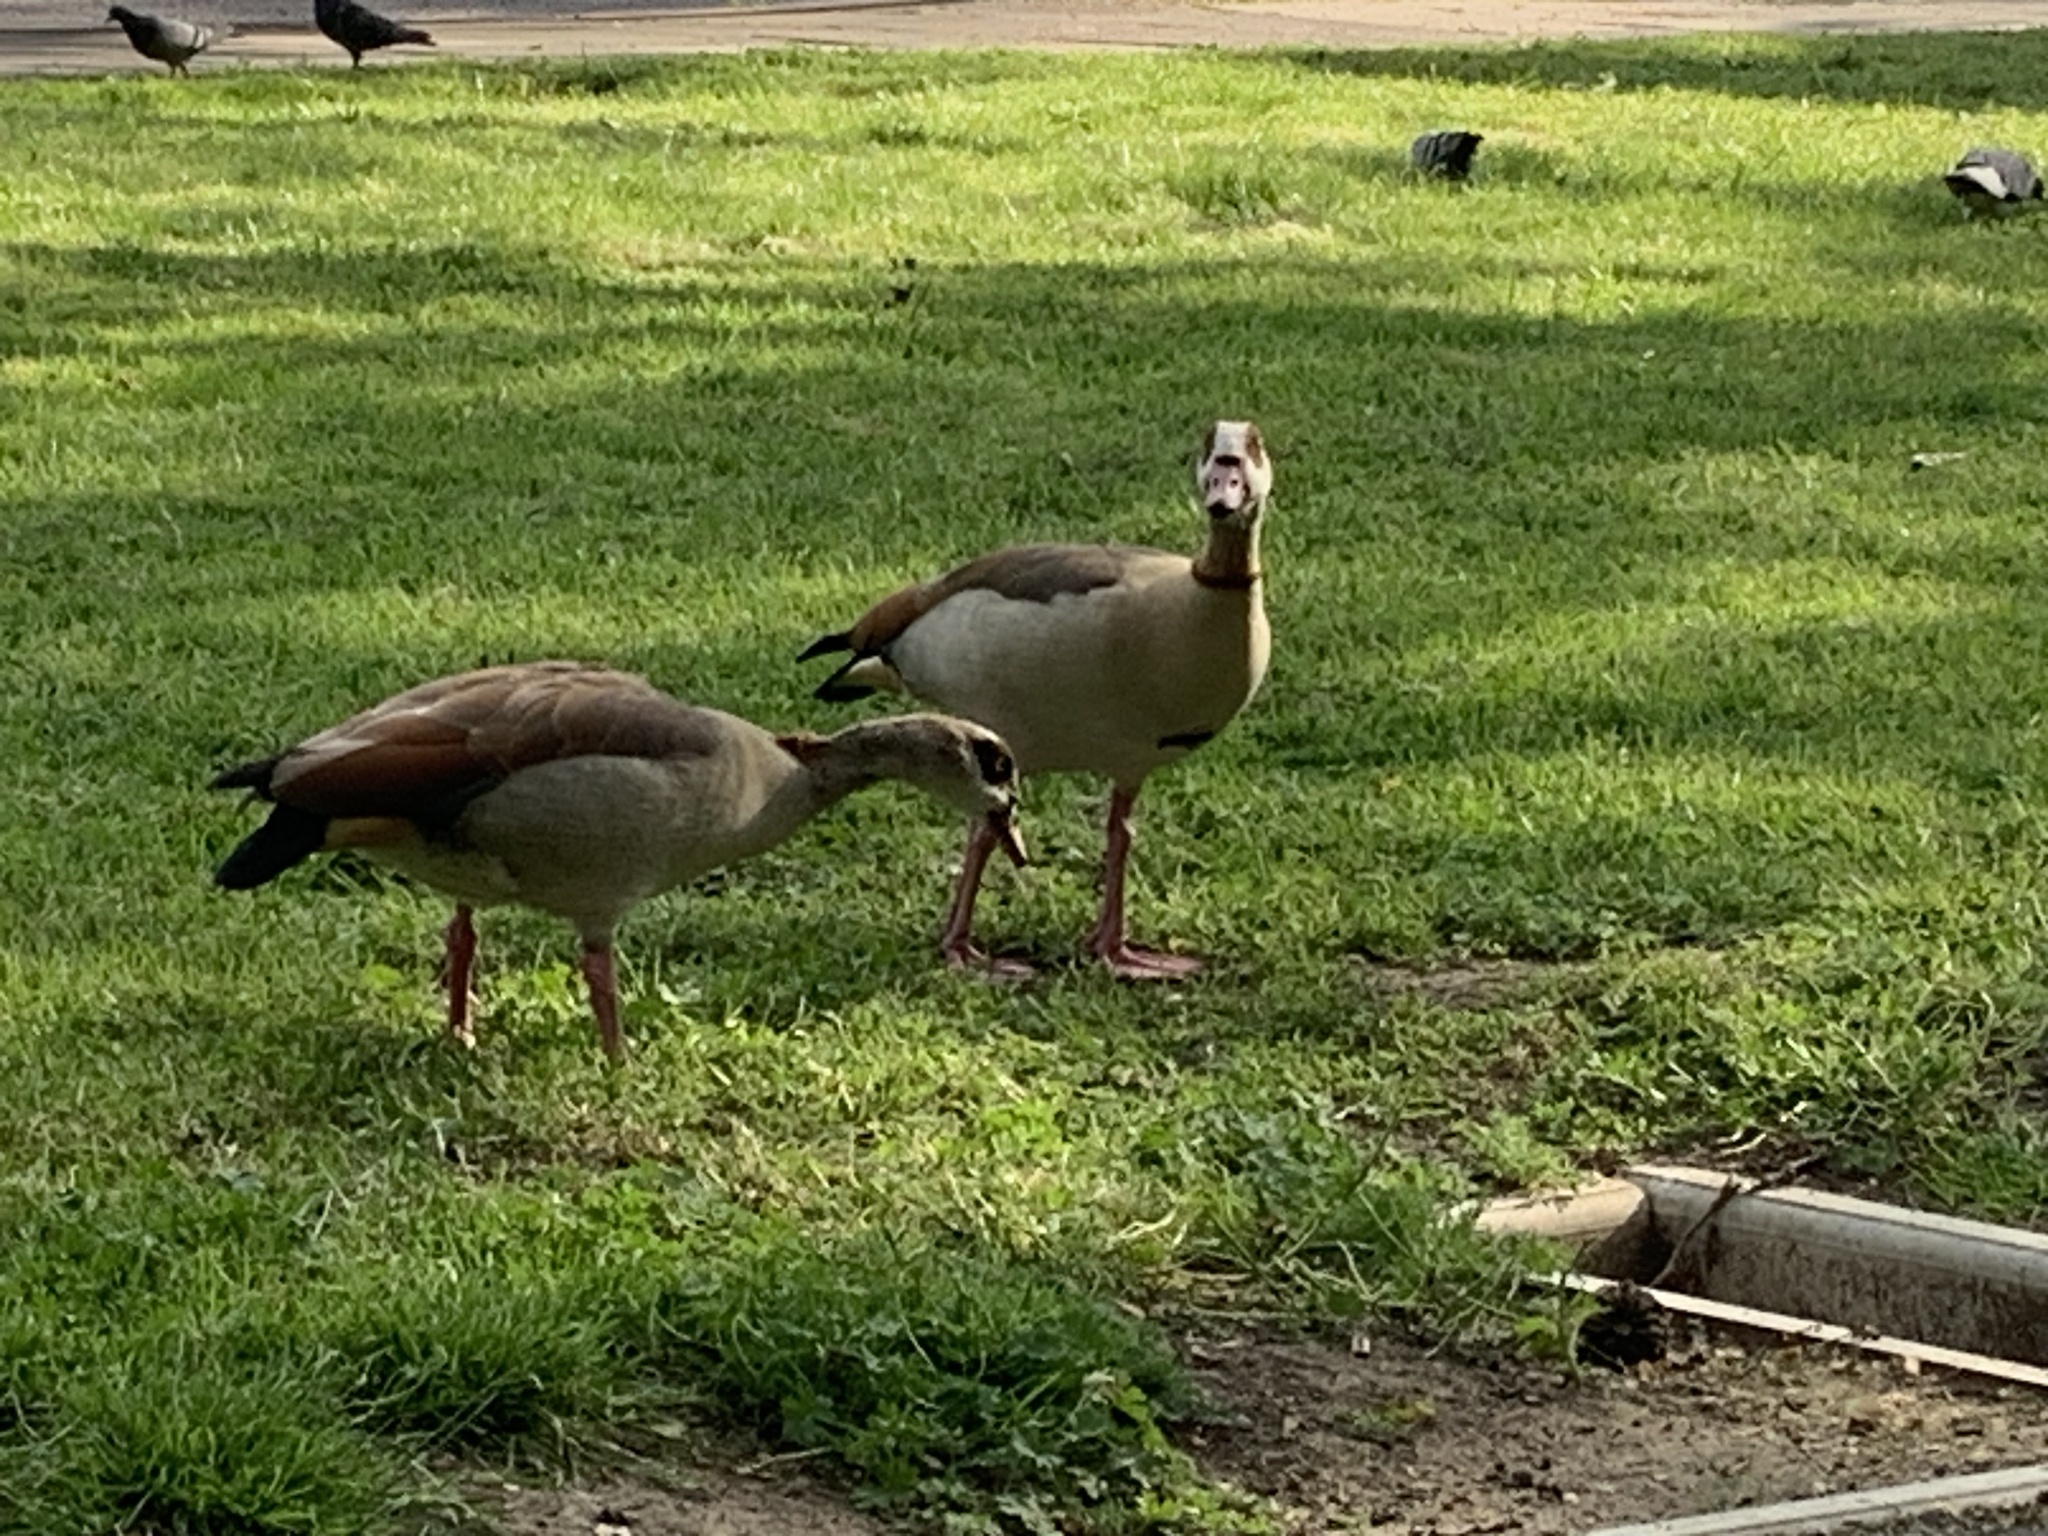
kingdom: Animalia
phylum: Chordata
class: Aves
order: Anseriformes
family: Anatidae
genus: Alopochen
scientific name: Alopochen aegyptiaca
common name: Egyptian goose
